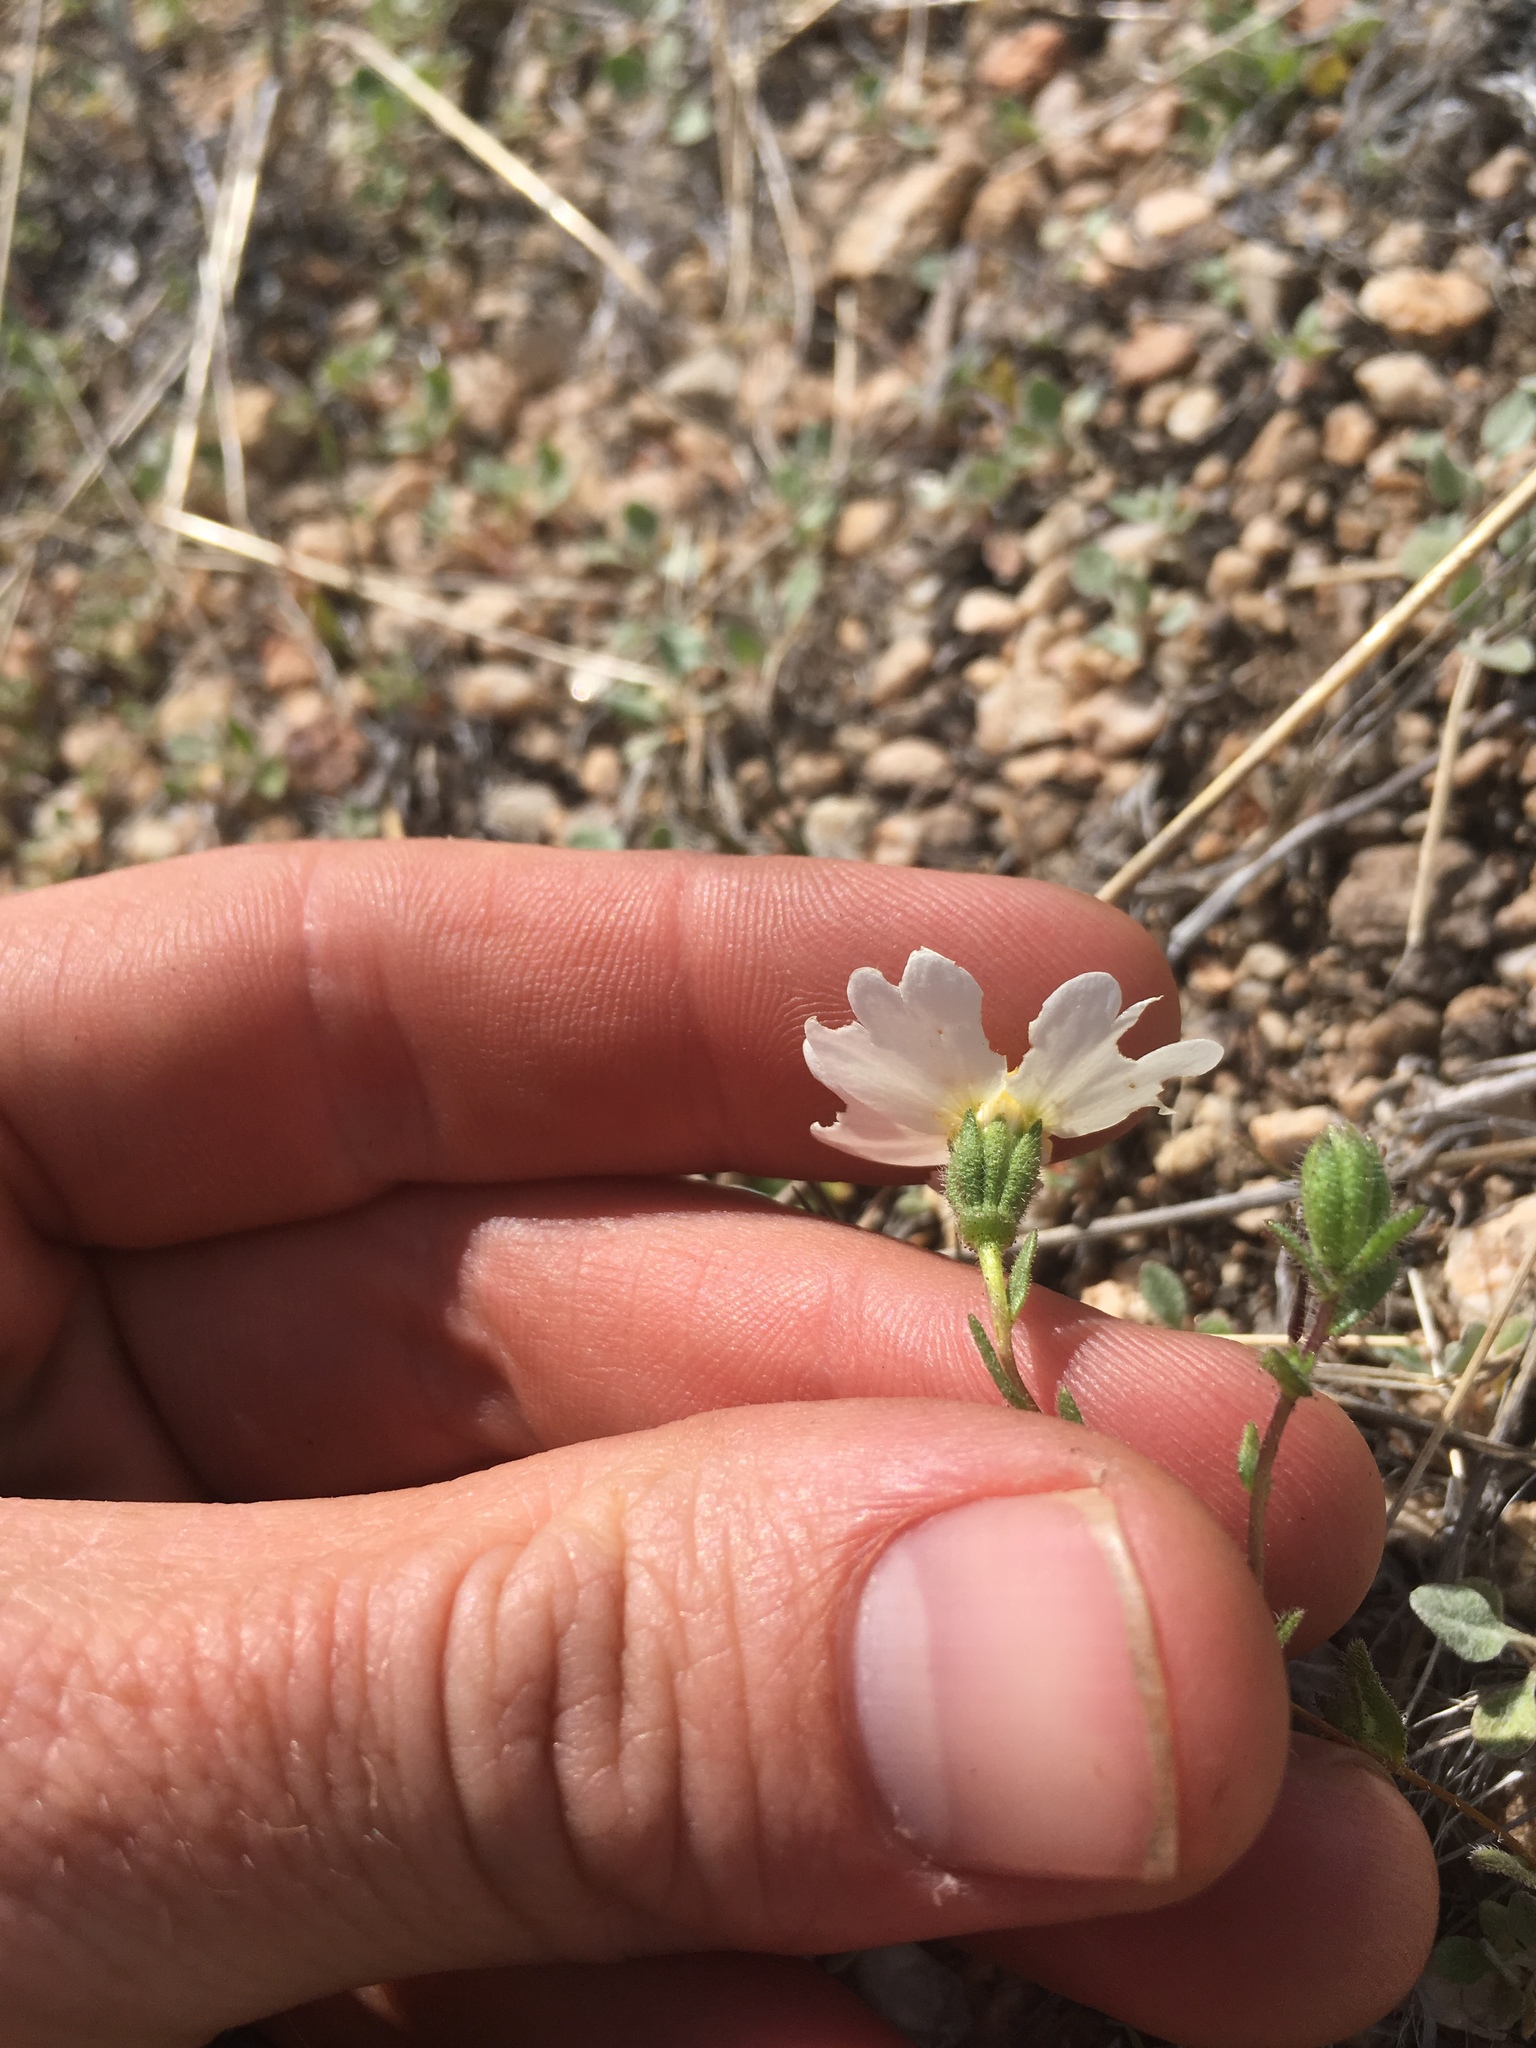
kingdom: Plantae
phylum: Tracheophyta
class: Magnoliopsida
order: Asterales
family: Asteraceae
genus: Layia
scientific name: Layia glandulosa
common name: White layia
